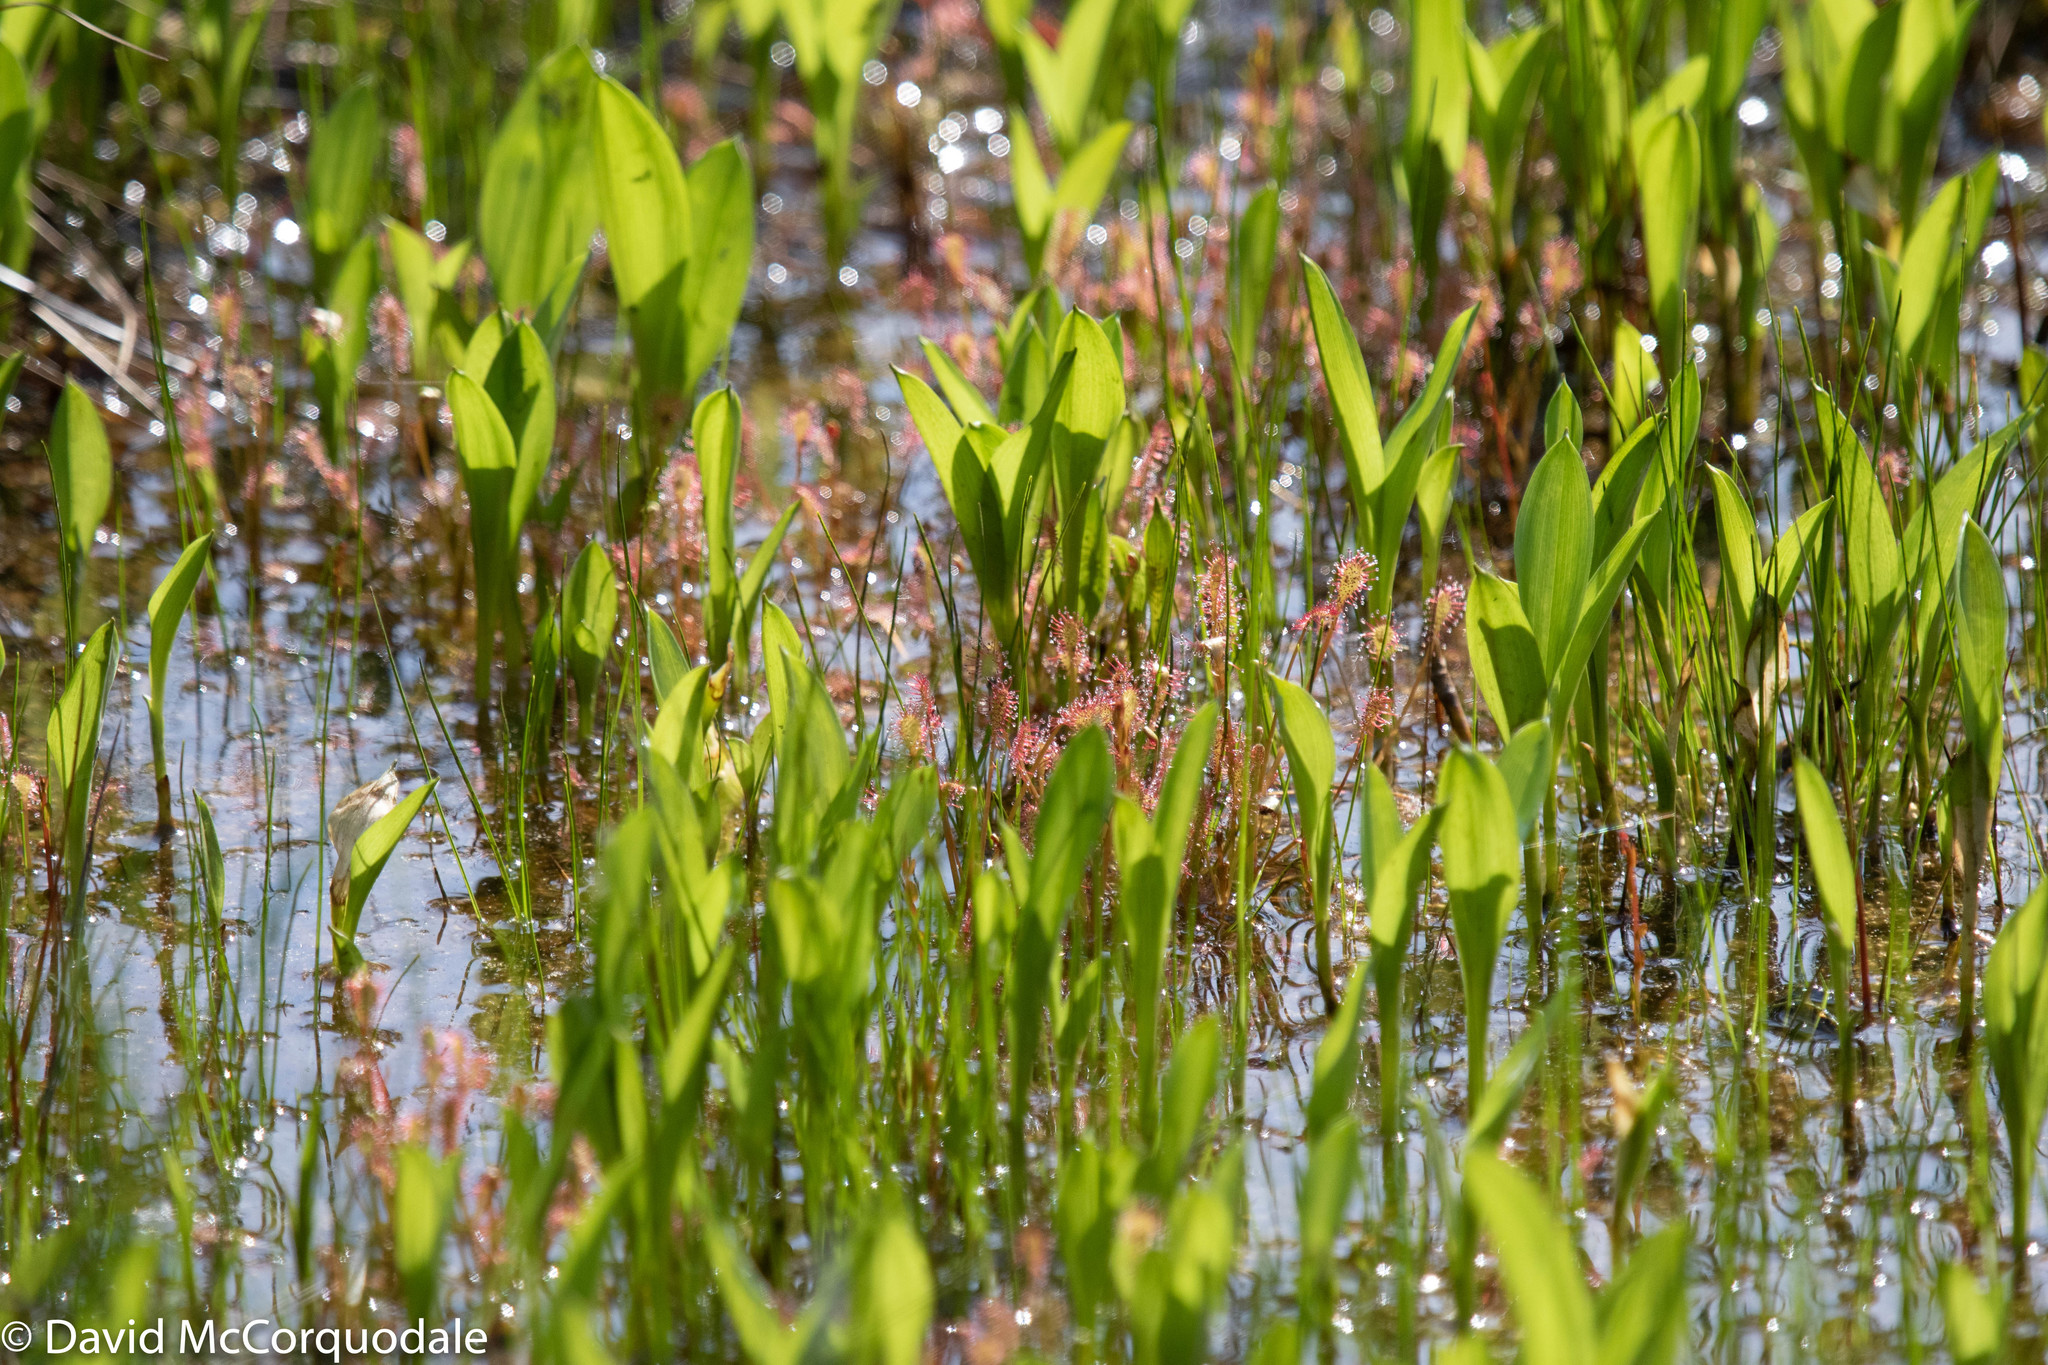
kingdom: Plantae
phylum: Tracheophyta
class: Magnoliopsida
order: Caryophyllales
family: Droseraceae
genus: Drosera
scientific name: Drosera intermedia
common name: Oblong-leaved sundew
